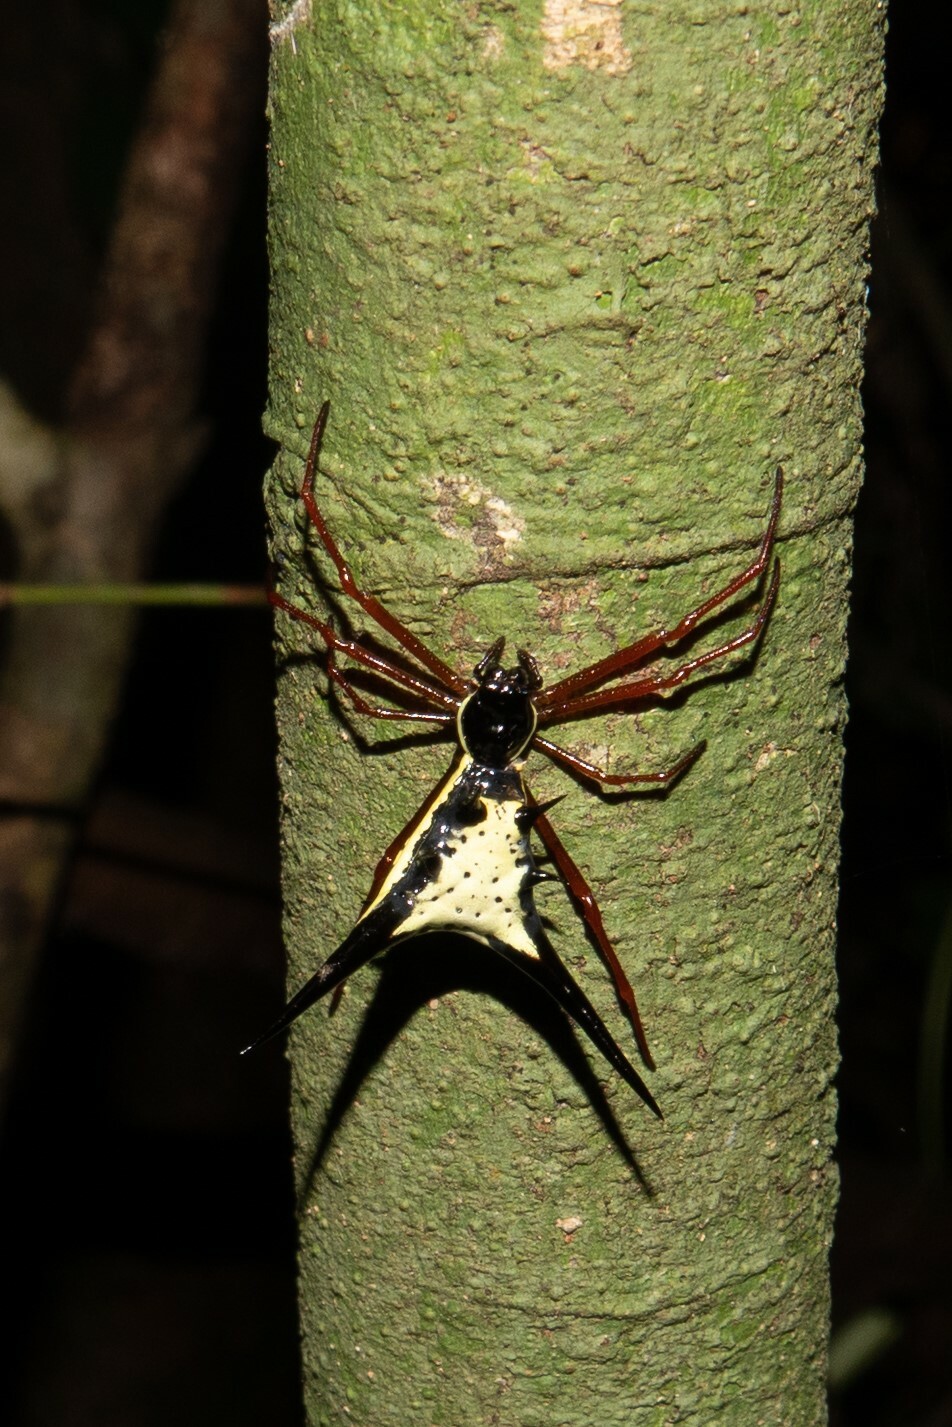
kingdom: Animalia
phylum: Arthropoda
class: Arachnida
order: Araneae
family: Araneidae
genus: Micrathena
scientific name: Micrathena schreibersi
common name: Orb weavers
